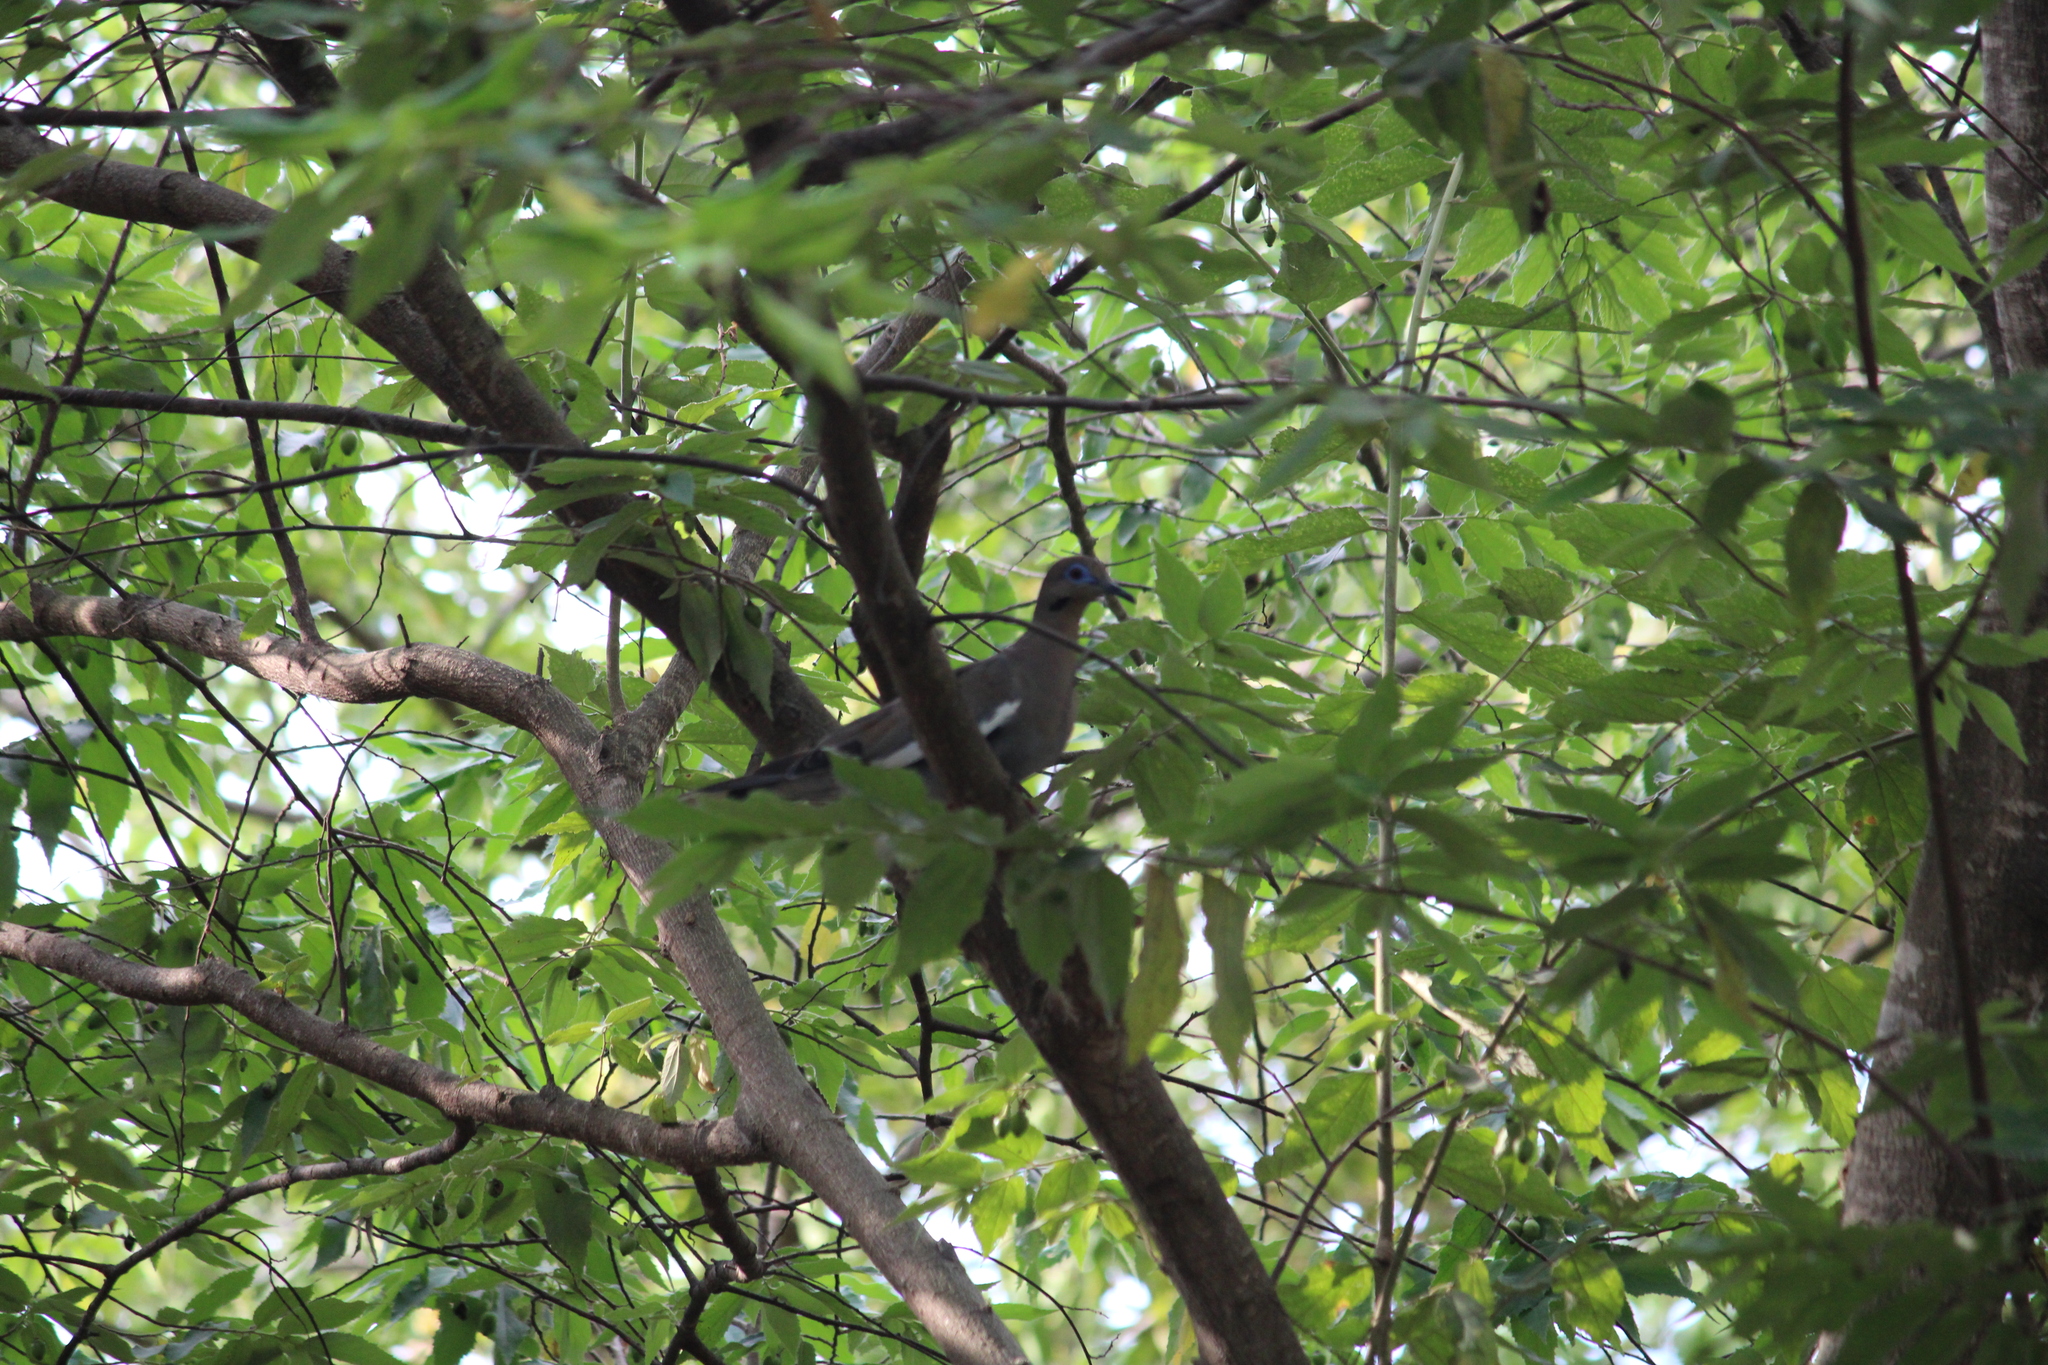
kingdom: Animalia
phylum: Chordata
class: Aves
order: Columbiformes
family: Columbidae
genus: Zenaida
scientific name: Zenaida asiatica
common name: White-winged dove
